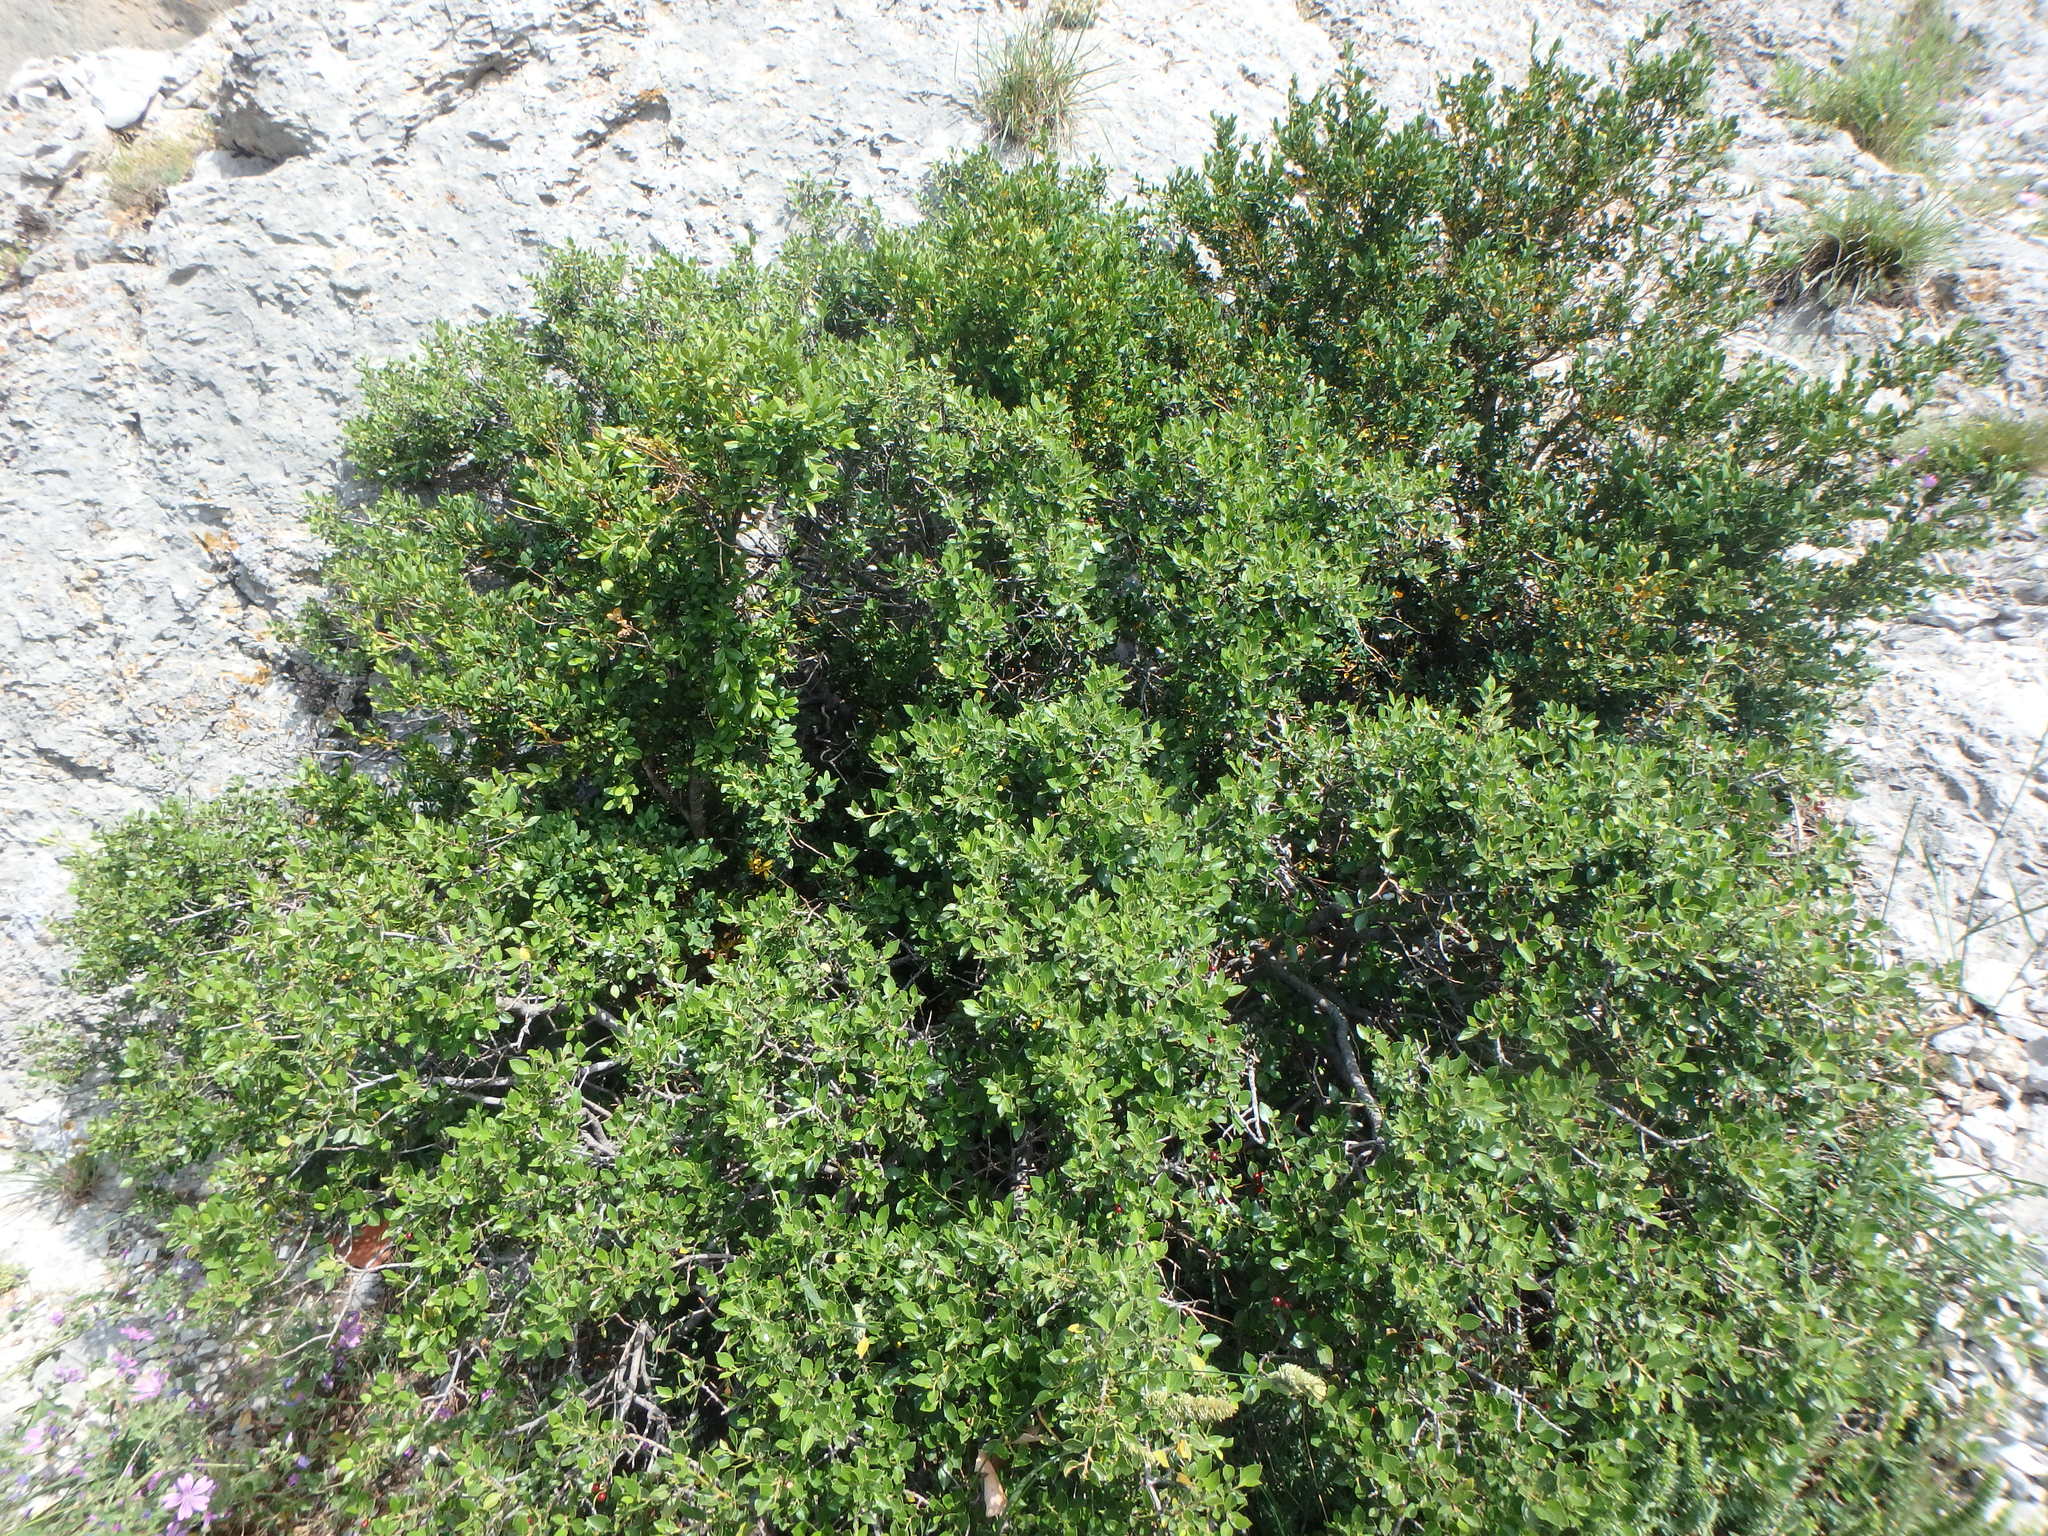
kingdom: Plantae
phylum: Tracheophyta
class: Magnoliopsida
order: Rosales
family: Rhamnaceae
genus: Rhamnus
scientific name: Rhamnus alaternus
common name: Mediterranean buckthorn
